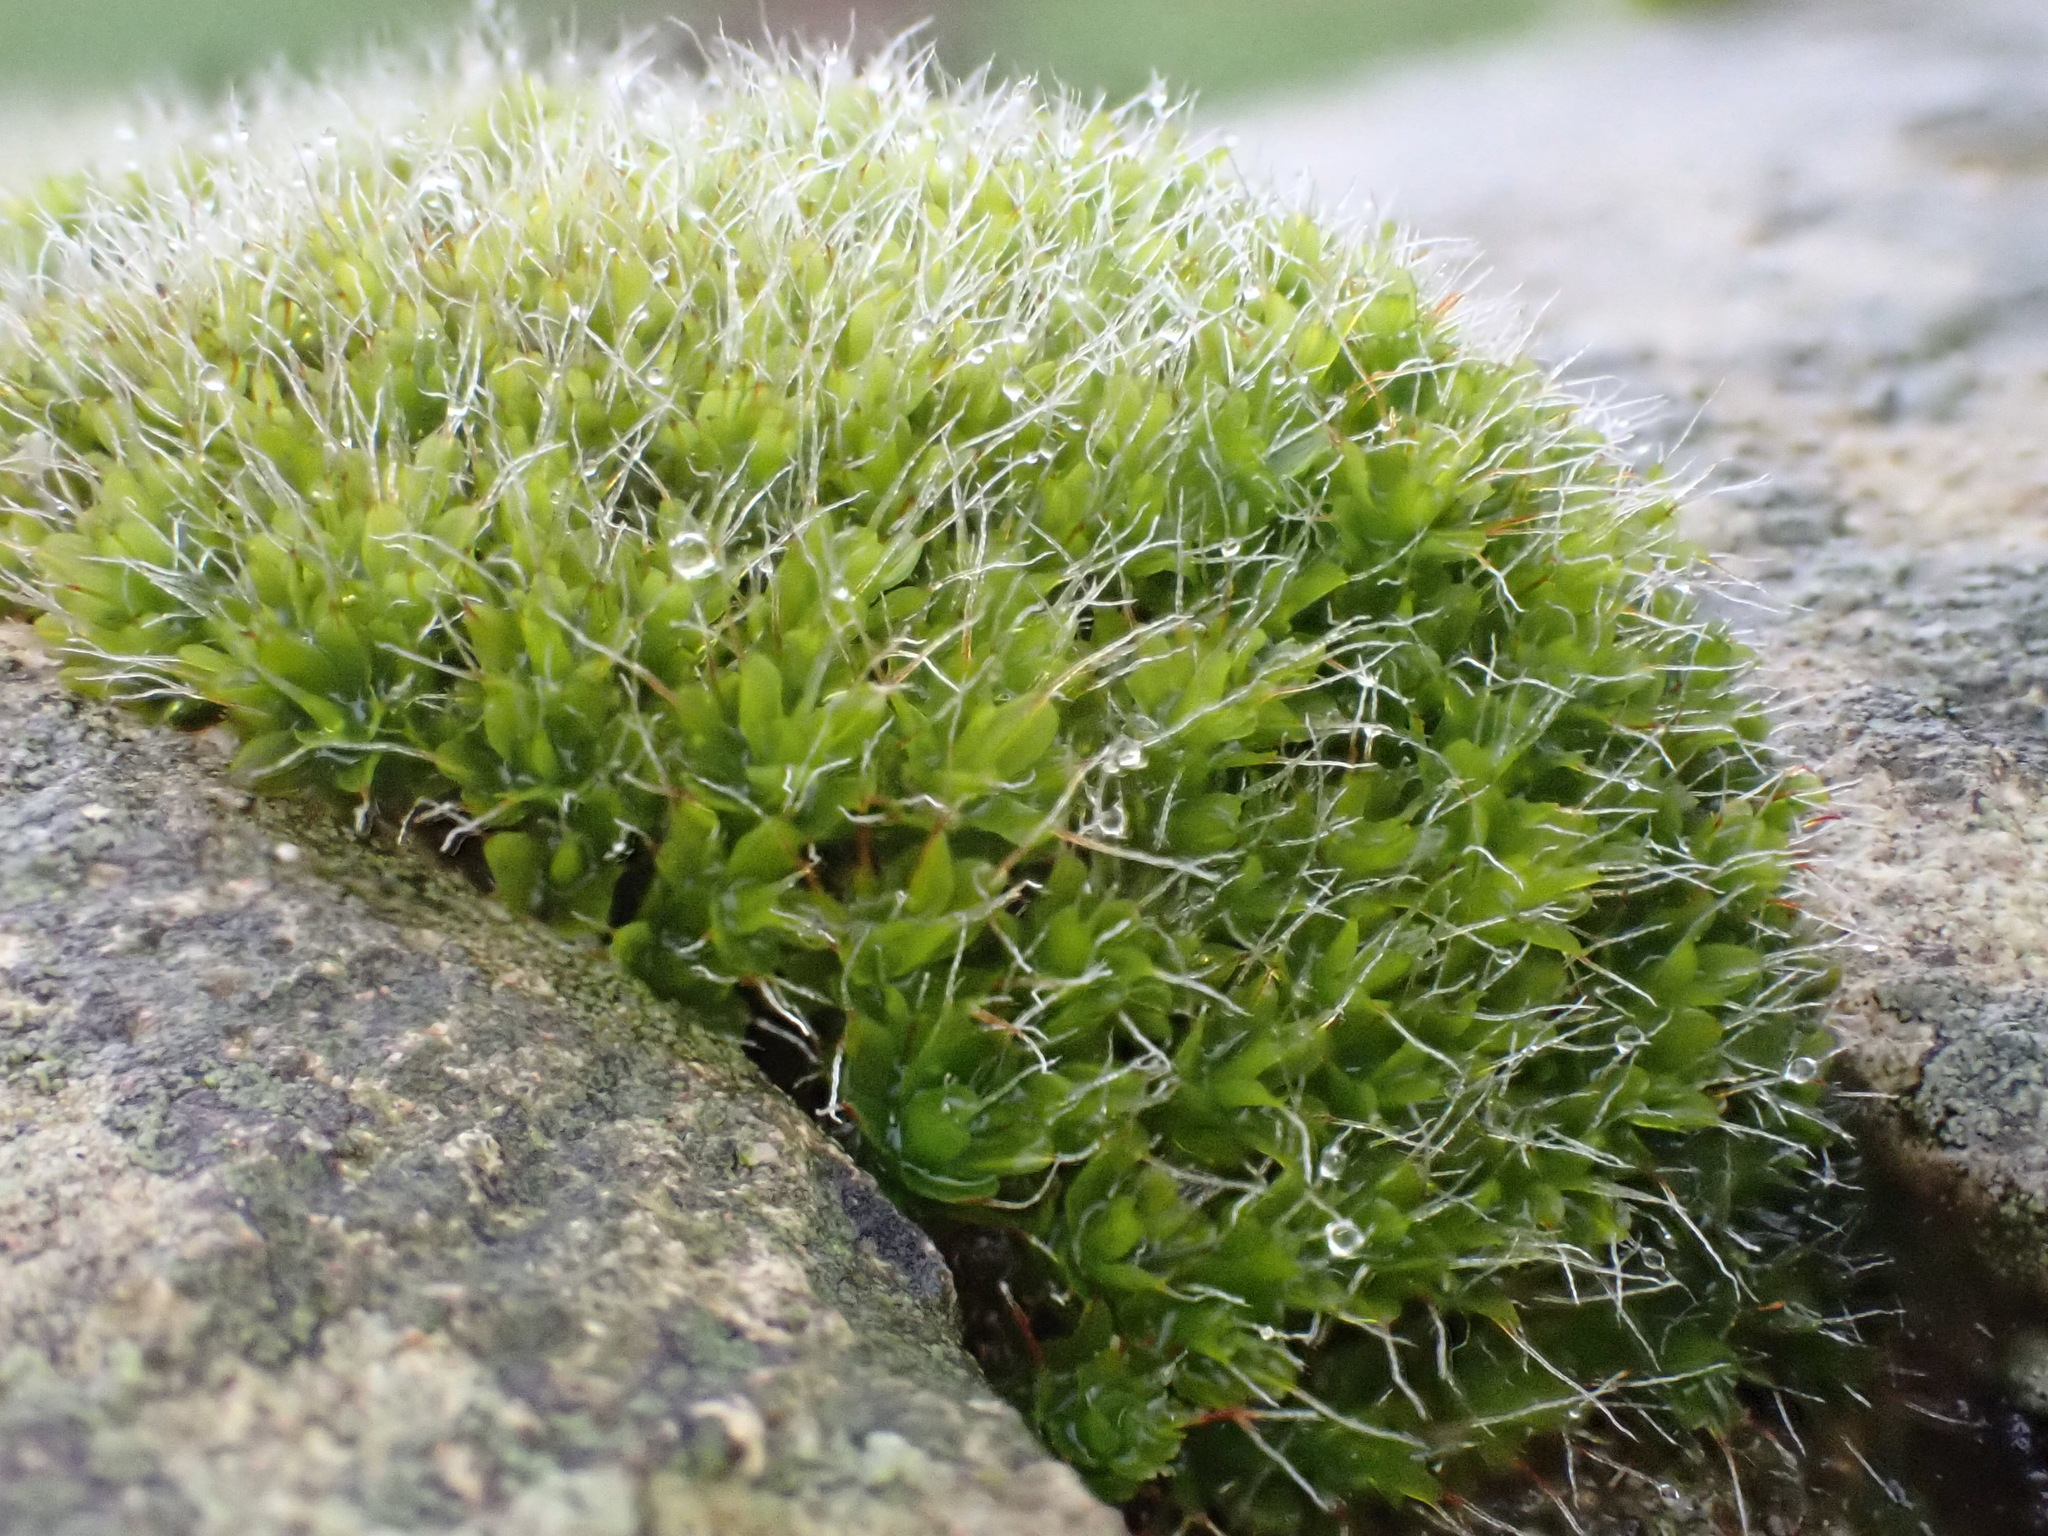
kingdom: Plantae
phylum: Bryophyta
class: Bryopsida
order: Pottiales
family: Pottiaceae
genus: Syntrichia
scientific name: Syntrichia montana
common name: Intermediate screw-moss
